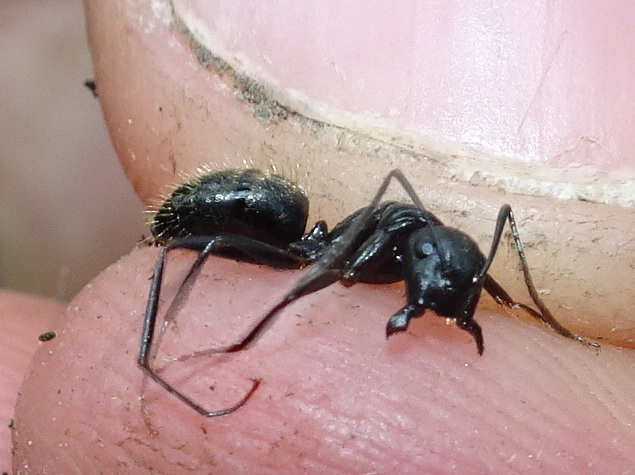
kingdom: Animalia
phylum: Arthropoda
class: Insecta
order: Hymenoptera
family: Formicidae
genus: Camponotus
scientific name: Camponotus pennsylvanicus
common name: Black carpenter ant
